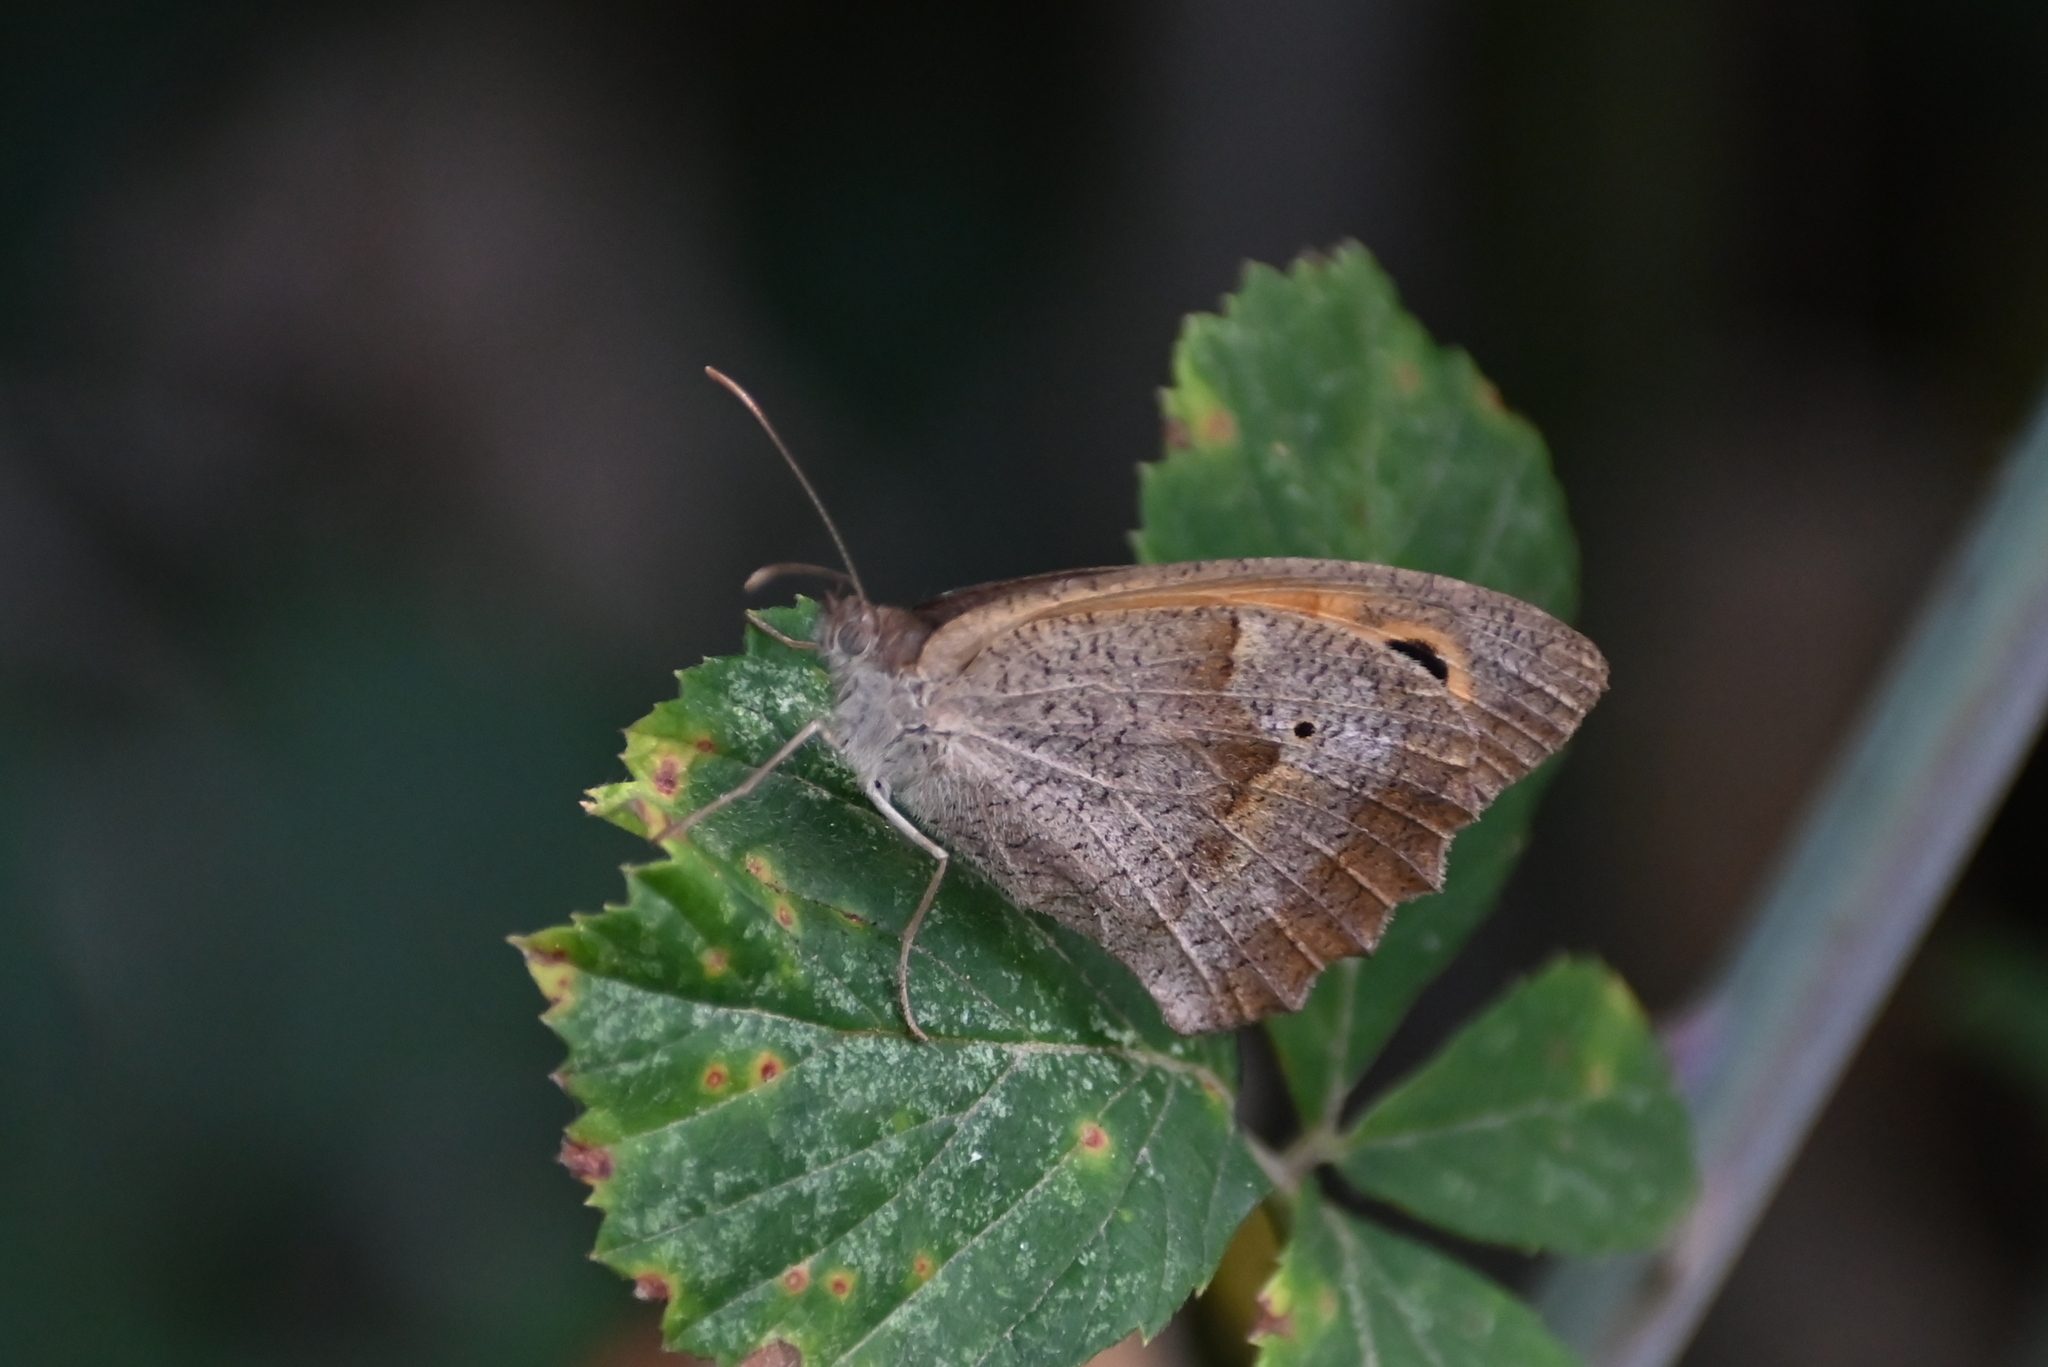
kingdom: Animalia
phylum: Arthropoda
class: Insecta
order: Lepidoptera
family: Nymphalidae
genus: Maniola
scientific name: Maniola jurtina
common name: Meadow brown
